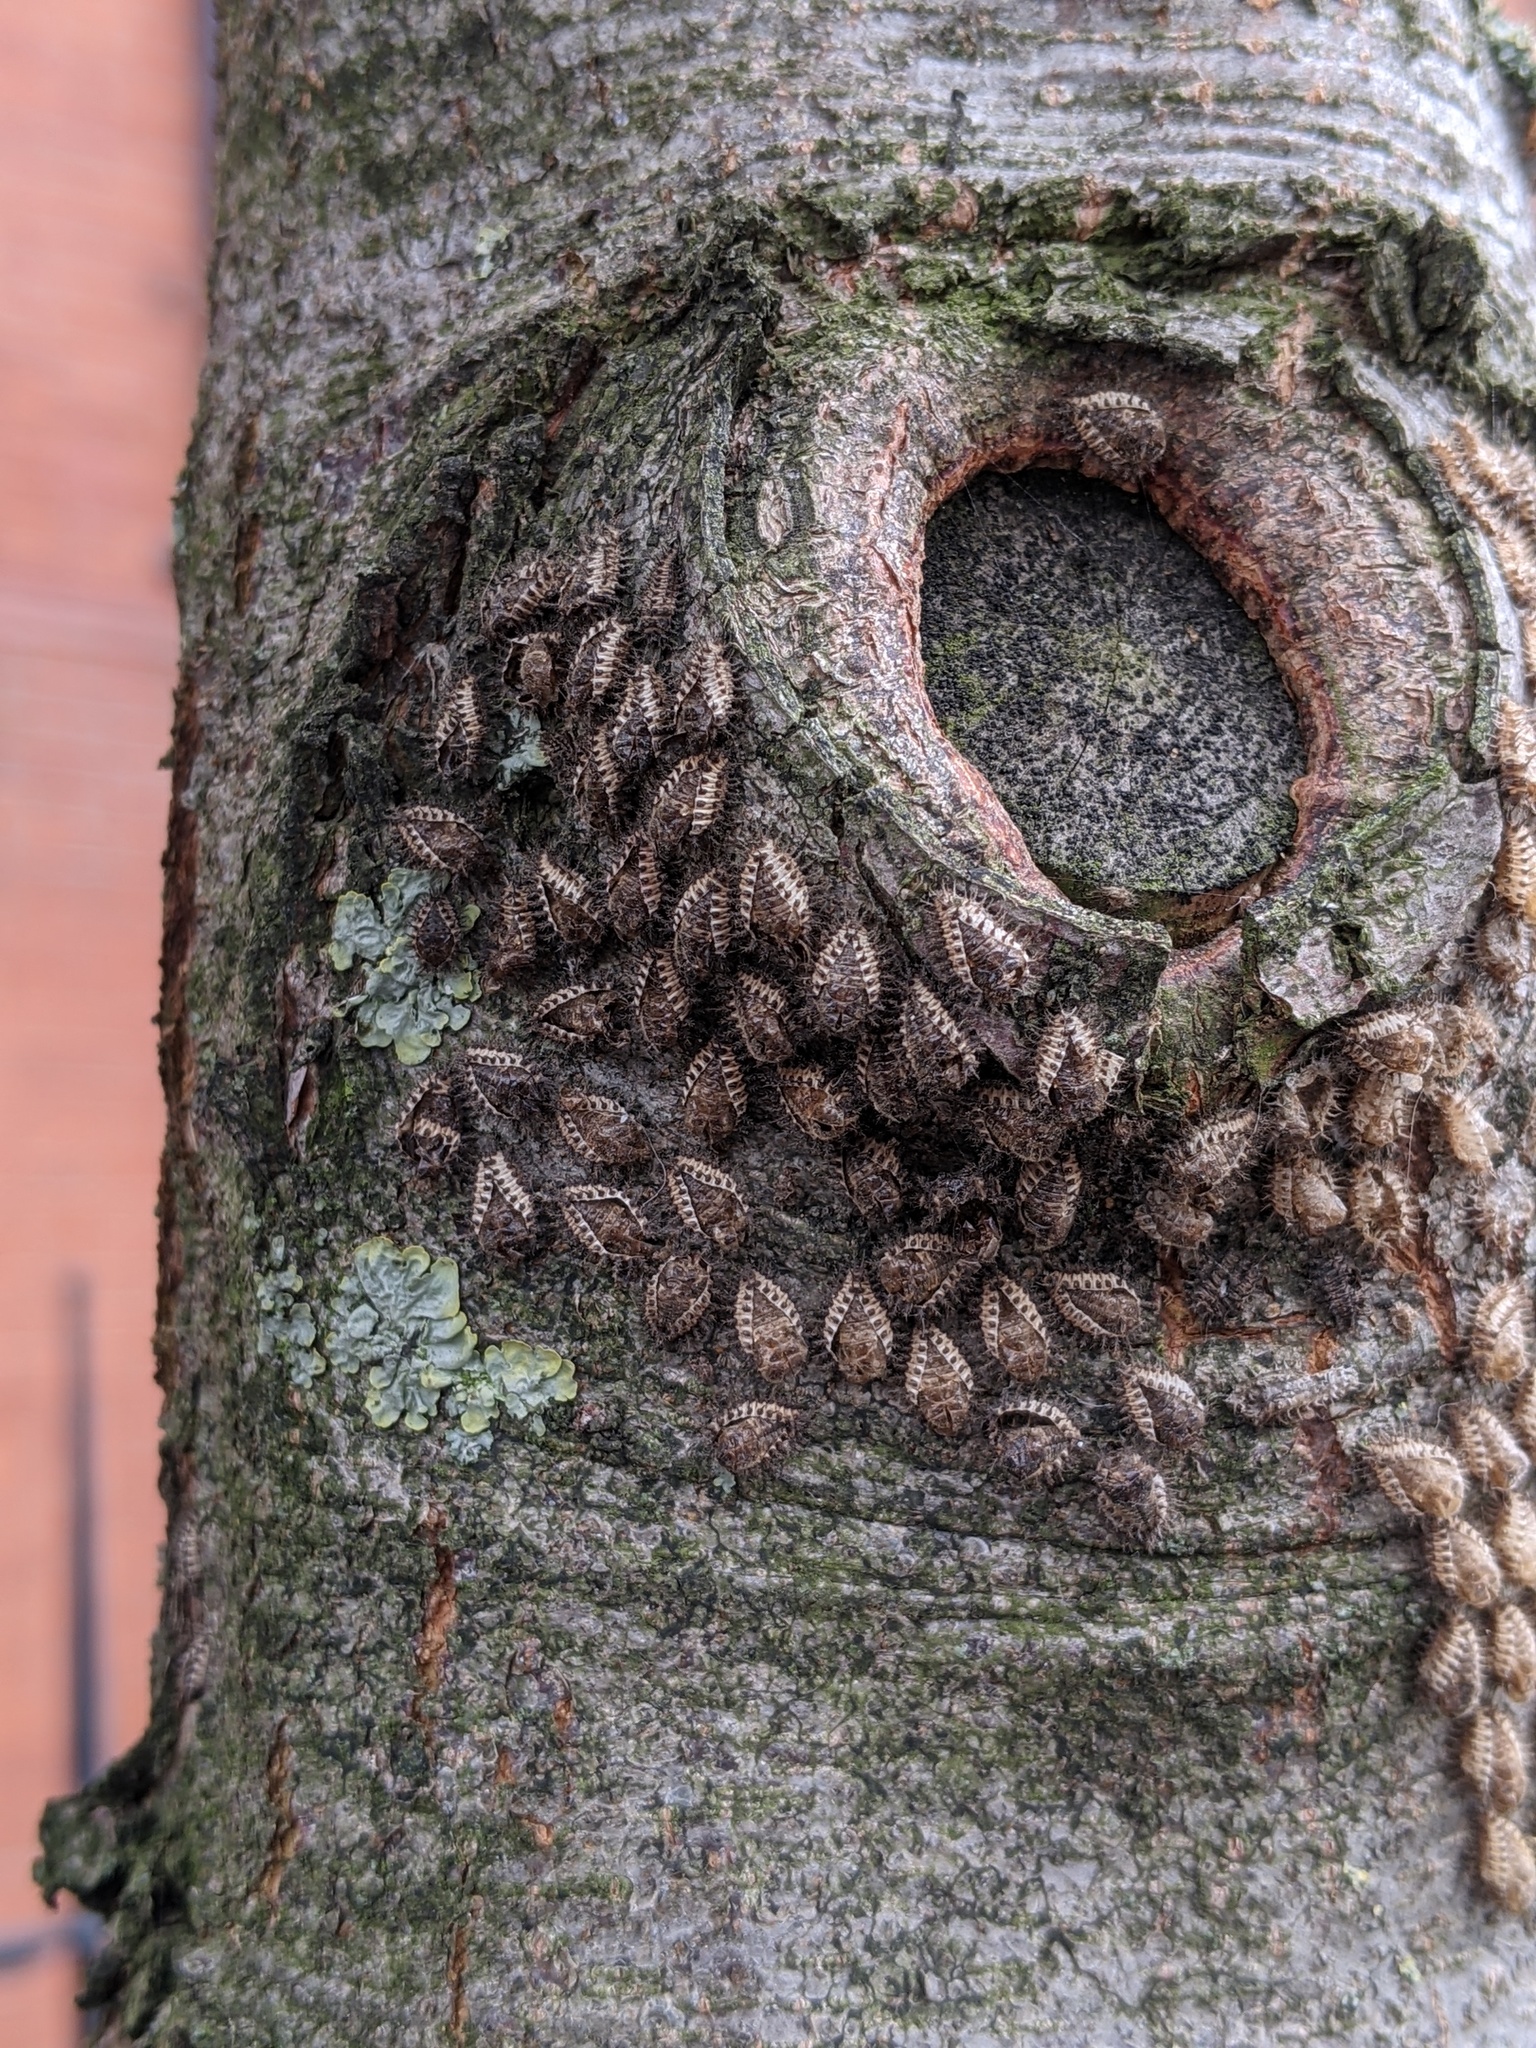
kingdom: Animalia
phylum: Arthropoda
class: Insecta
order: Coleoptera
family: Coccinellidae
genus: Chilocorus
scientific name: Chilocorus renipustulatus
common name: Kidney-spot ladybird
